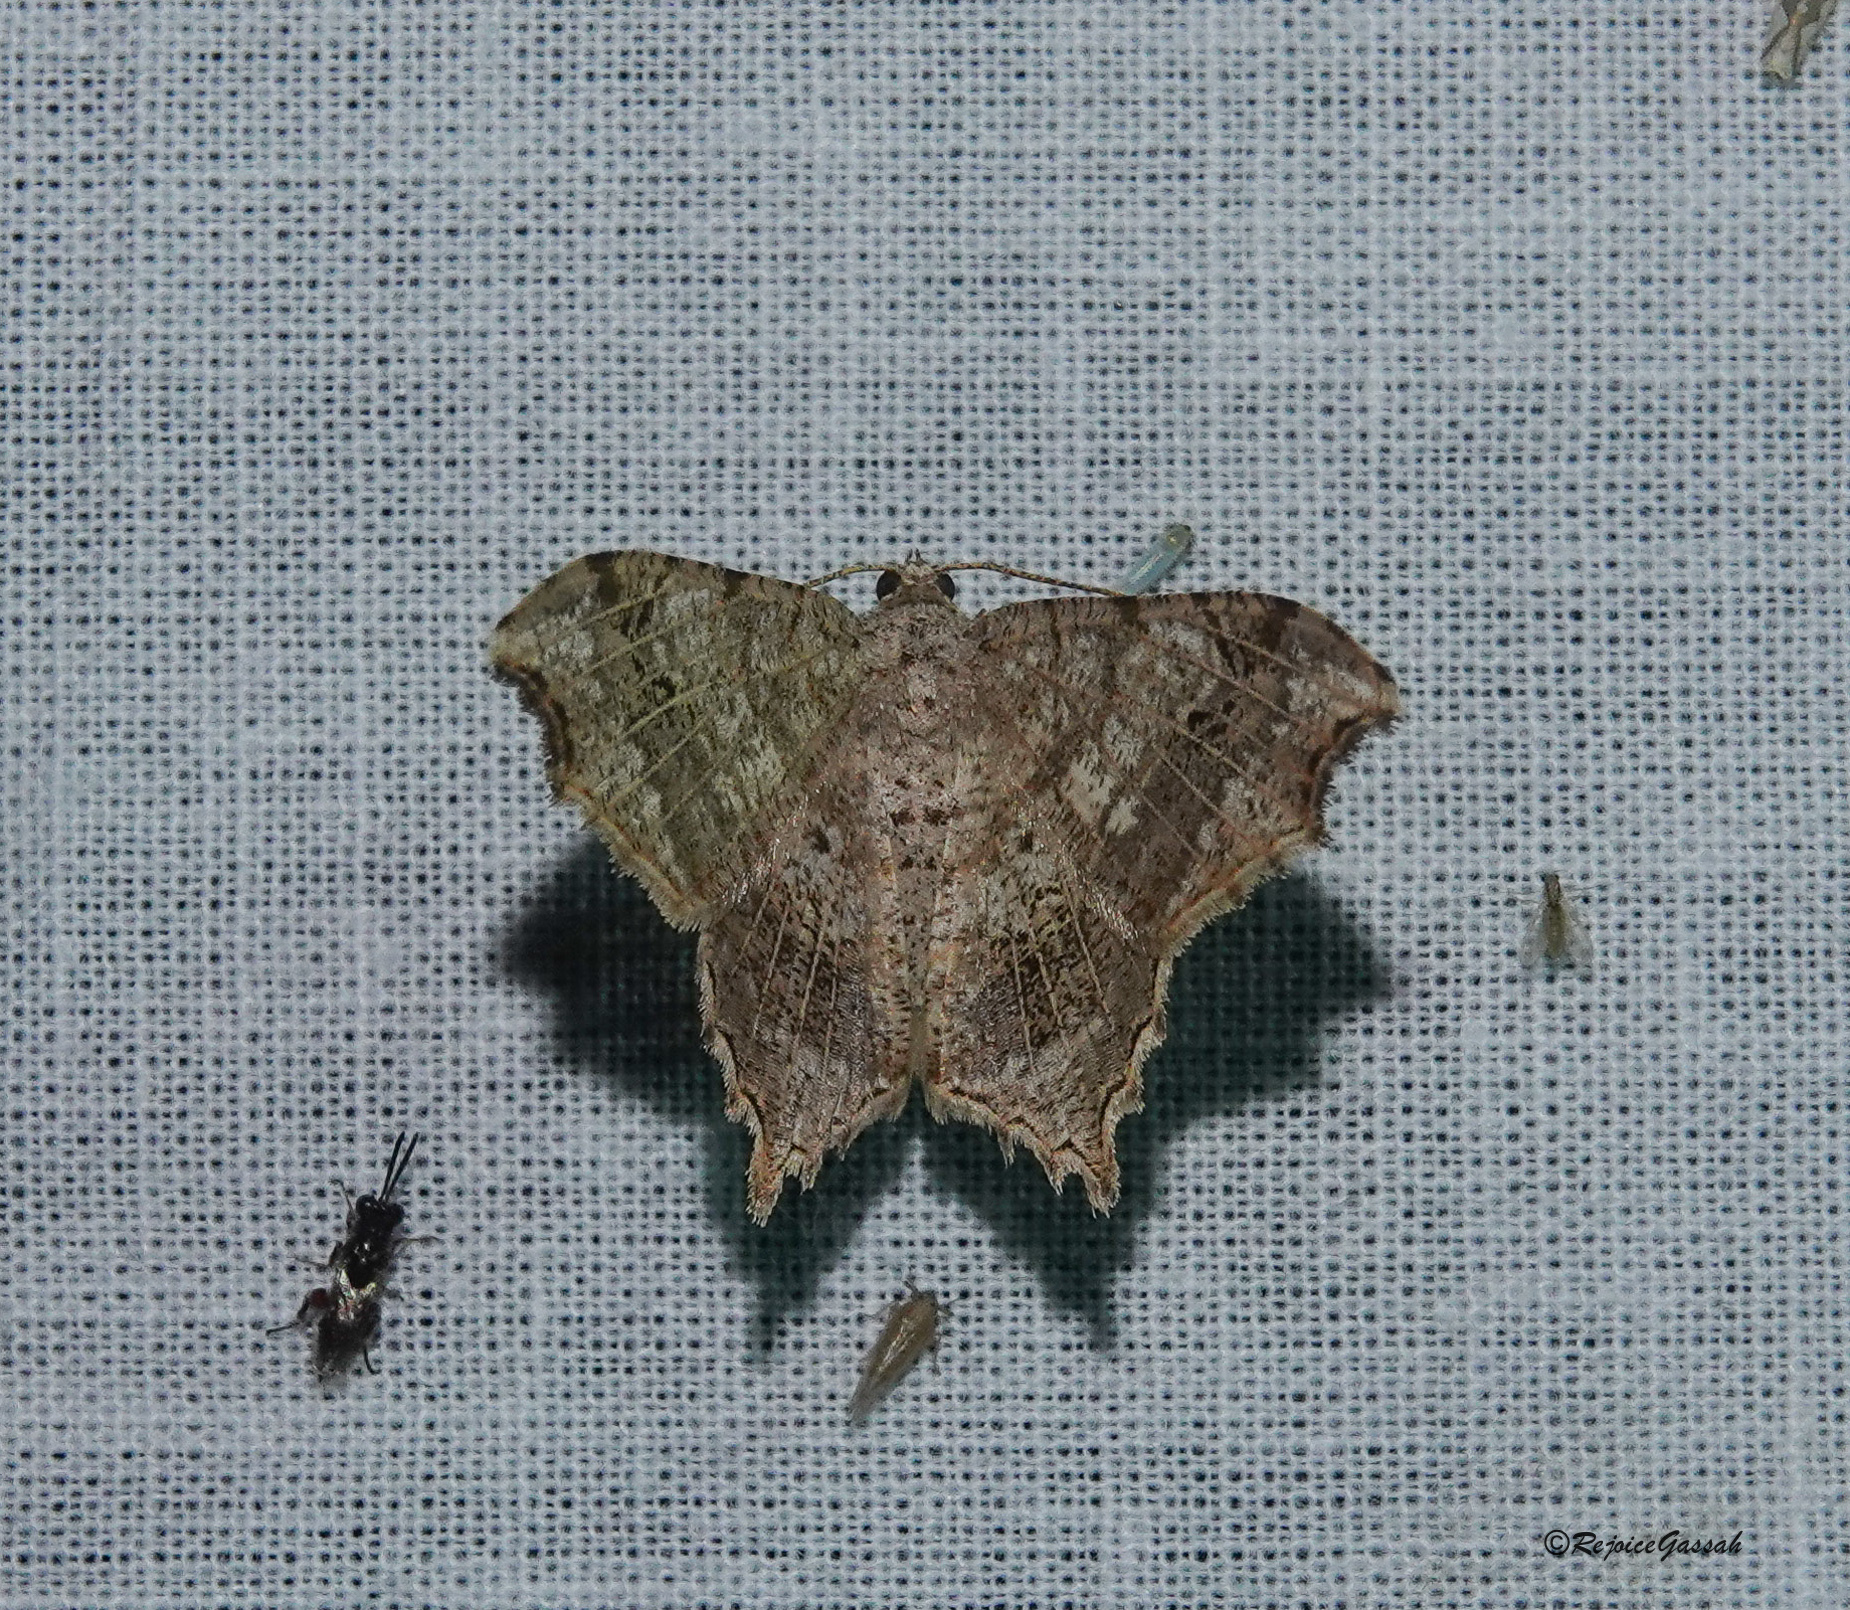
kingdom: Animalia
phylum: Arthropoda
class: Insecta
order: Lepidoptera
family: Geometridae
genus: Chiasmia
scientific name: Chiasmia emersaria
